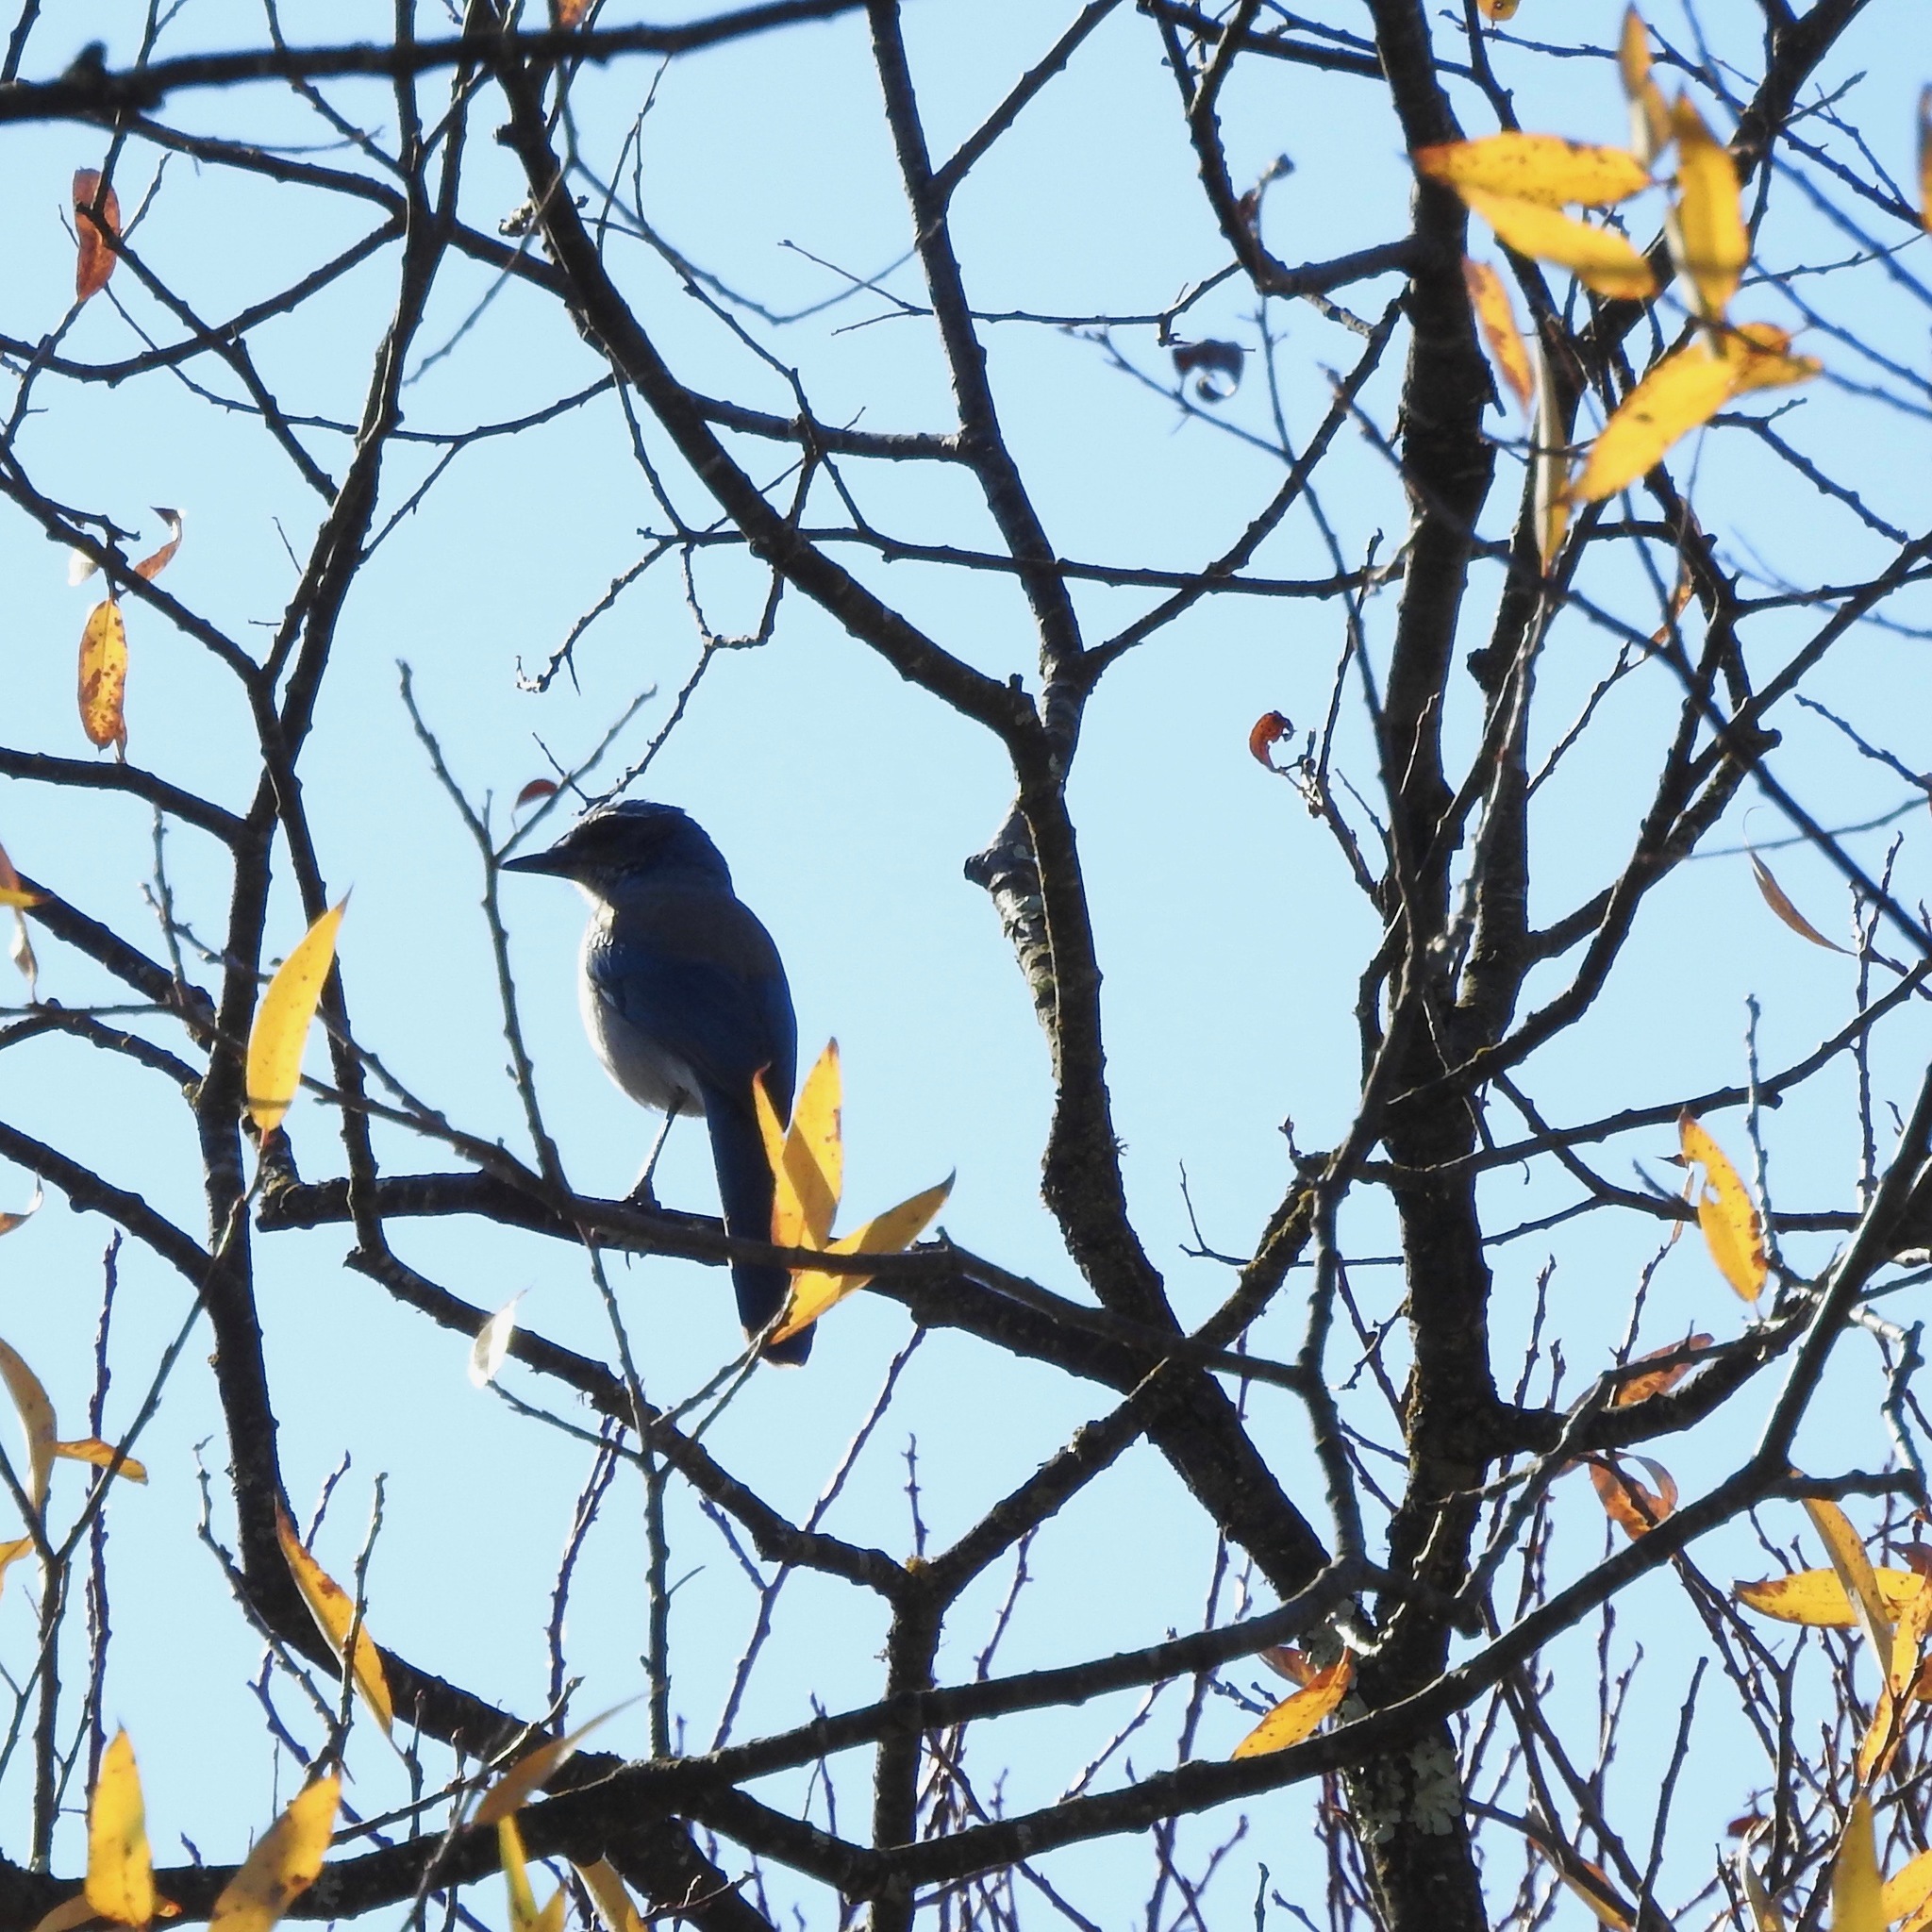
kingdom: Animalia
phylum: Chordata
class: Aves
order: Passeriformes
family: Corvidae
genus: Aphelocoma
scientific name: Aphelocoma californica
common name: California scrub-jay
